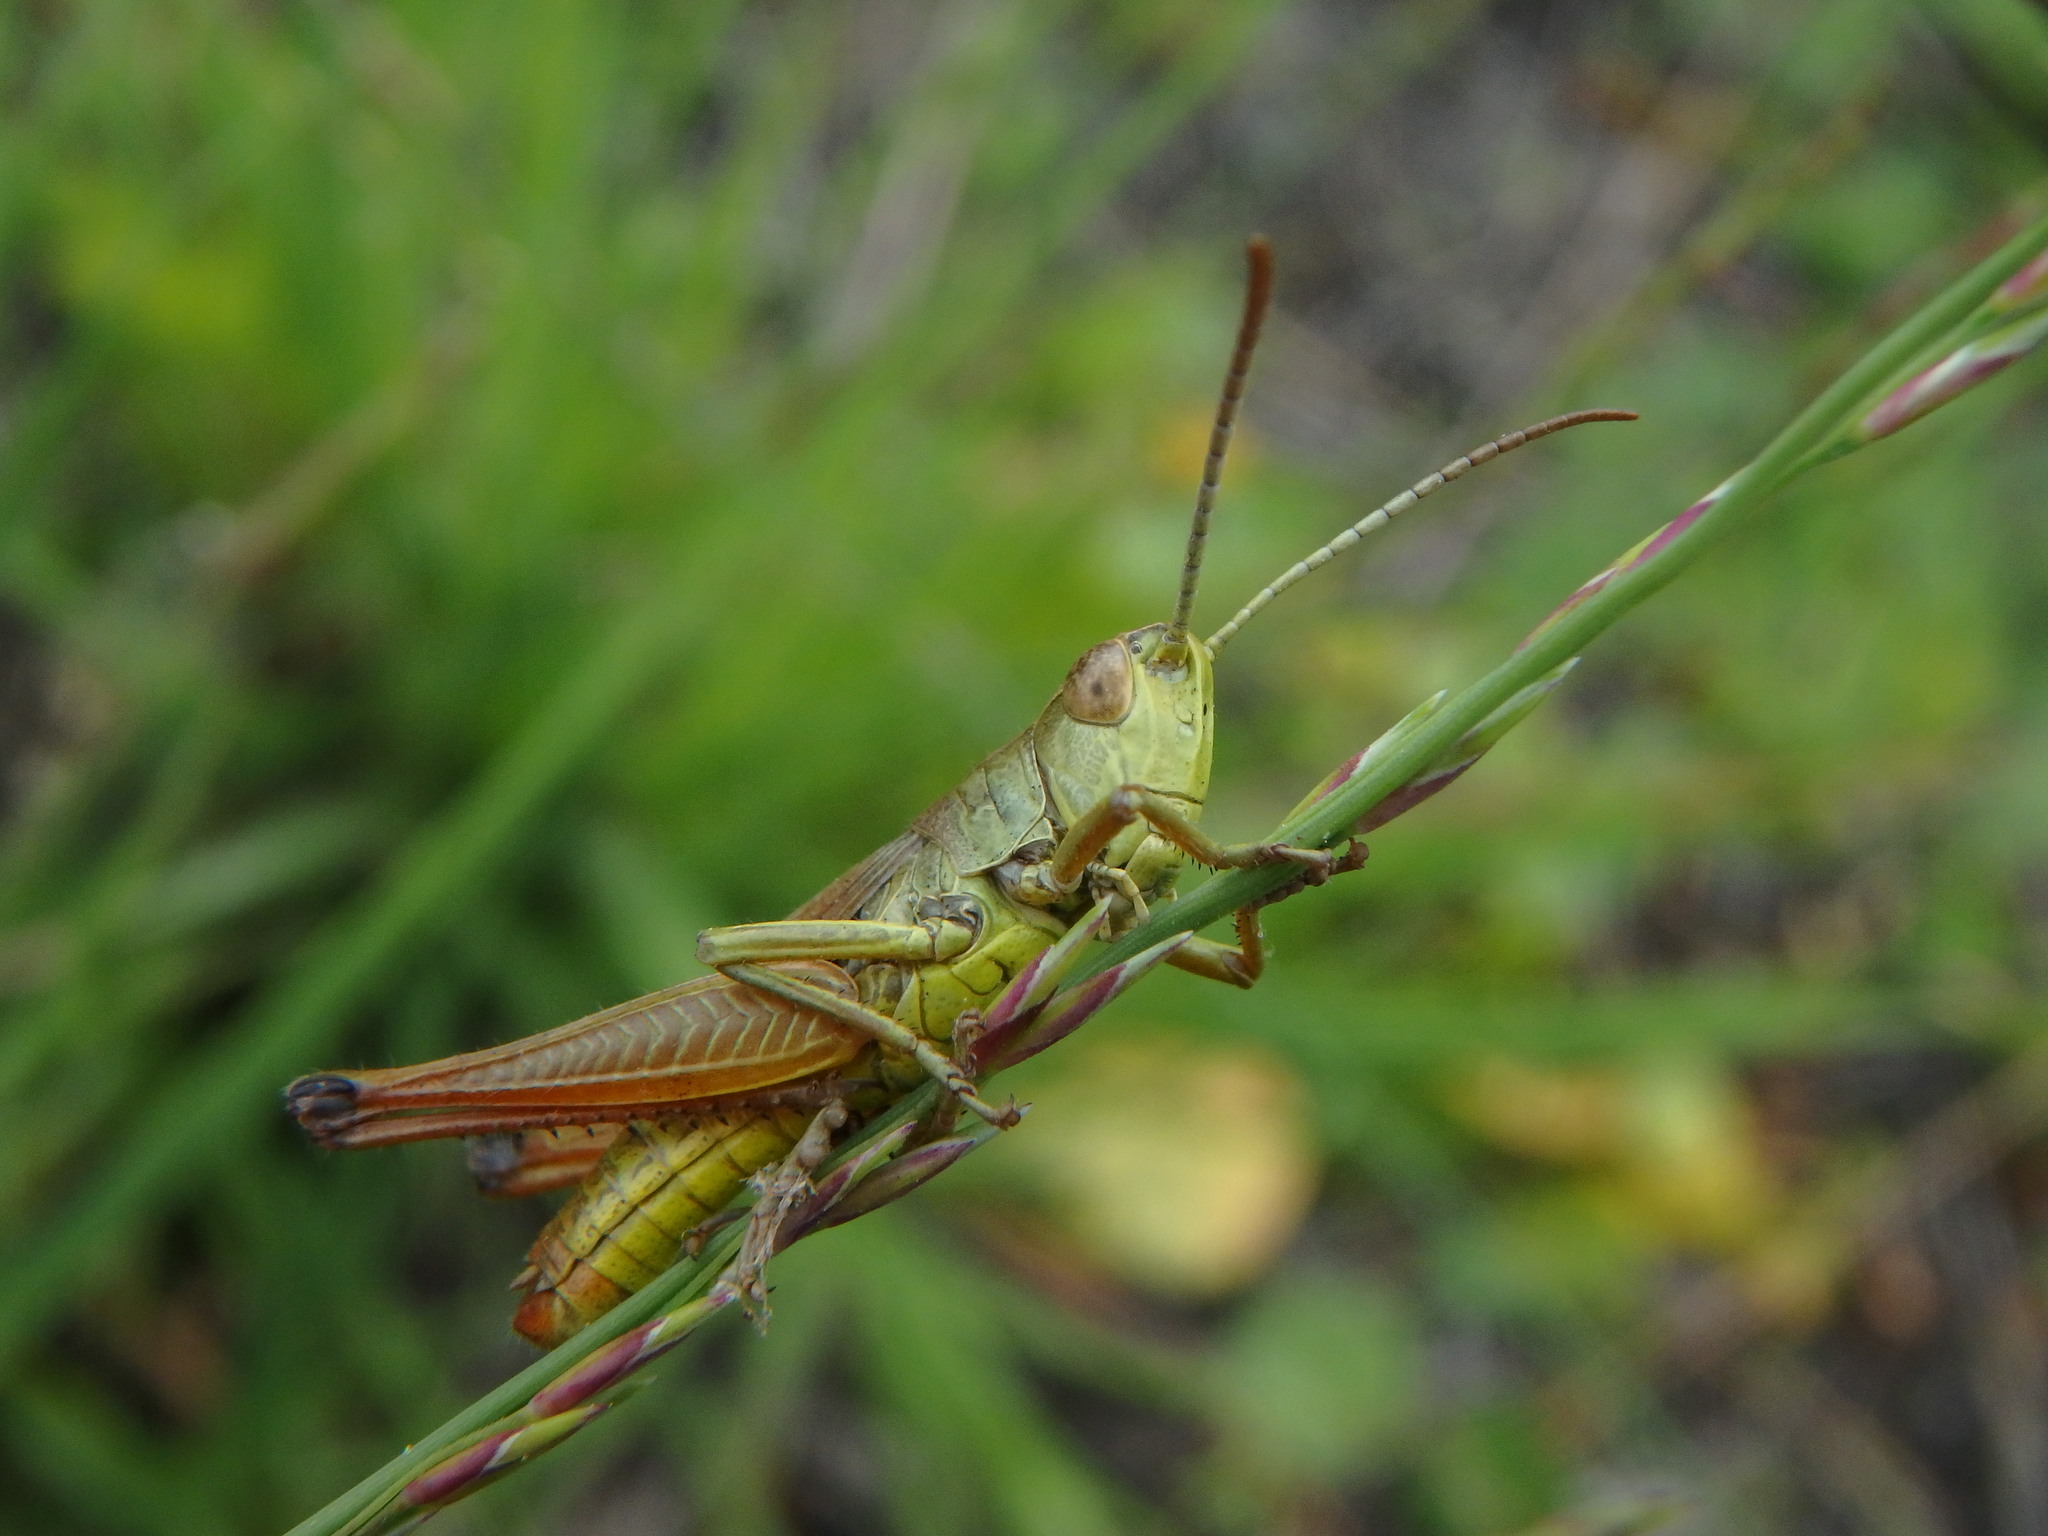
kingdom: Animalia
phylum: Arthropoda
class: Insecta
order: Orthoptera
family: Acrididae
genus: Pseudochorthippus
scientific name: Pseudochorthippus parallelus
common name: Meadow grasshopper
